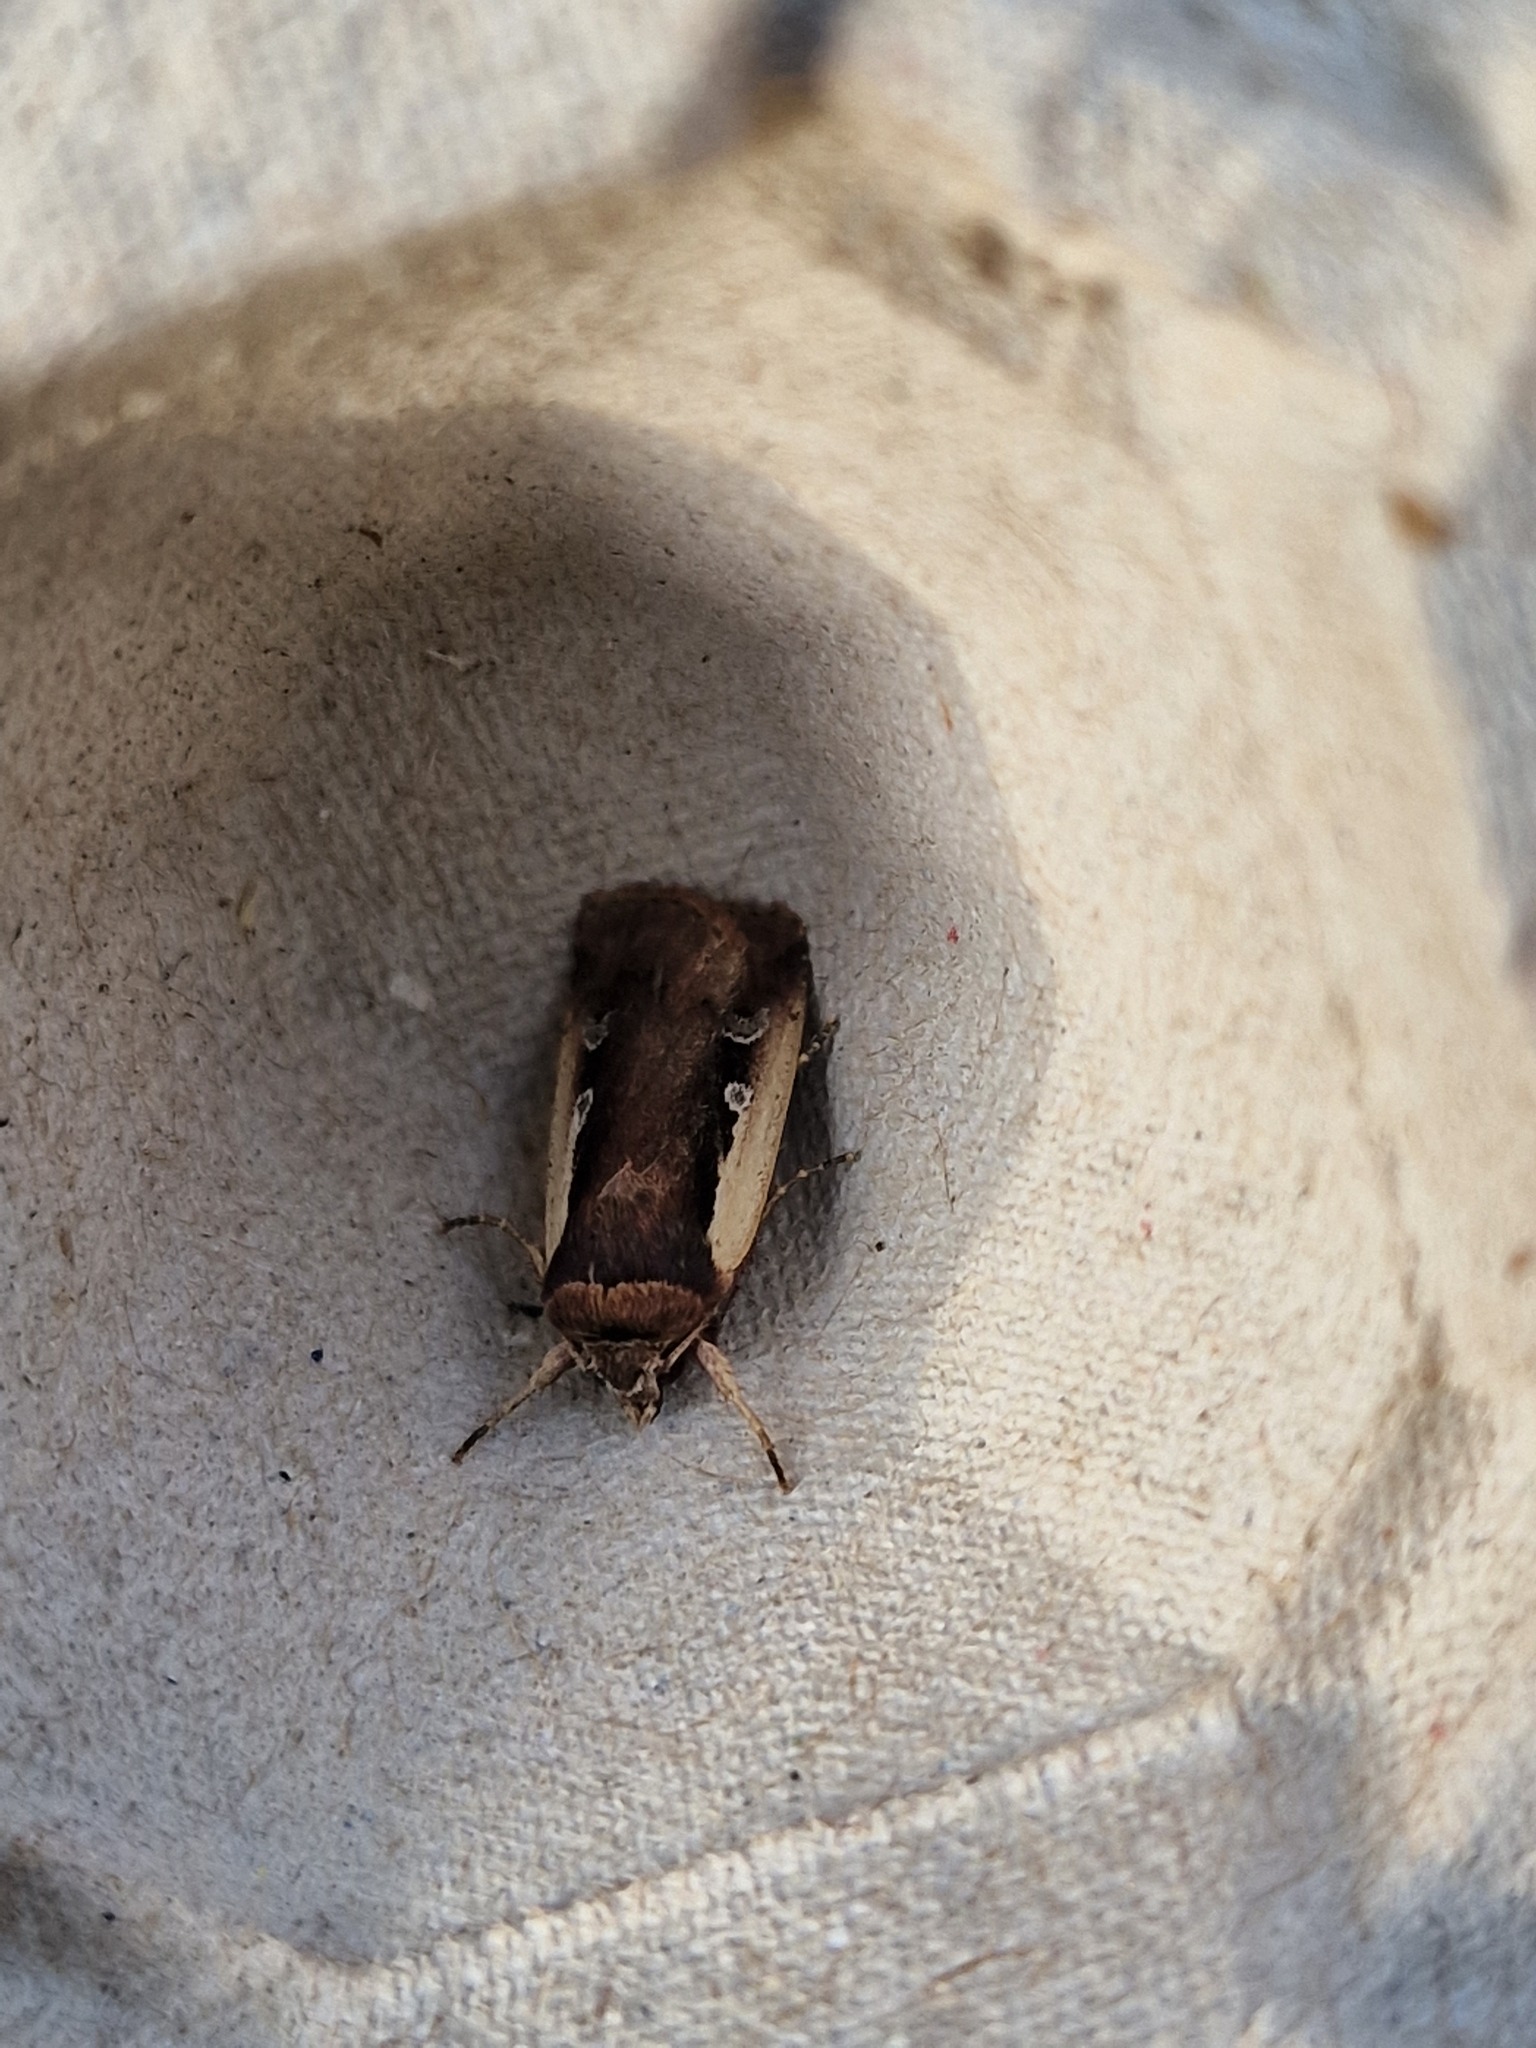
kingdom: Animalia
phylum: Arthropoda
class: Insecta
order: Lepidoptera
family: Noctuidae
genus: Ochropleura
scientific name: Ochropleura plecta
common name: Flame shoulder
